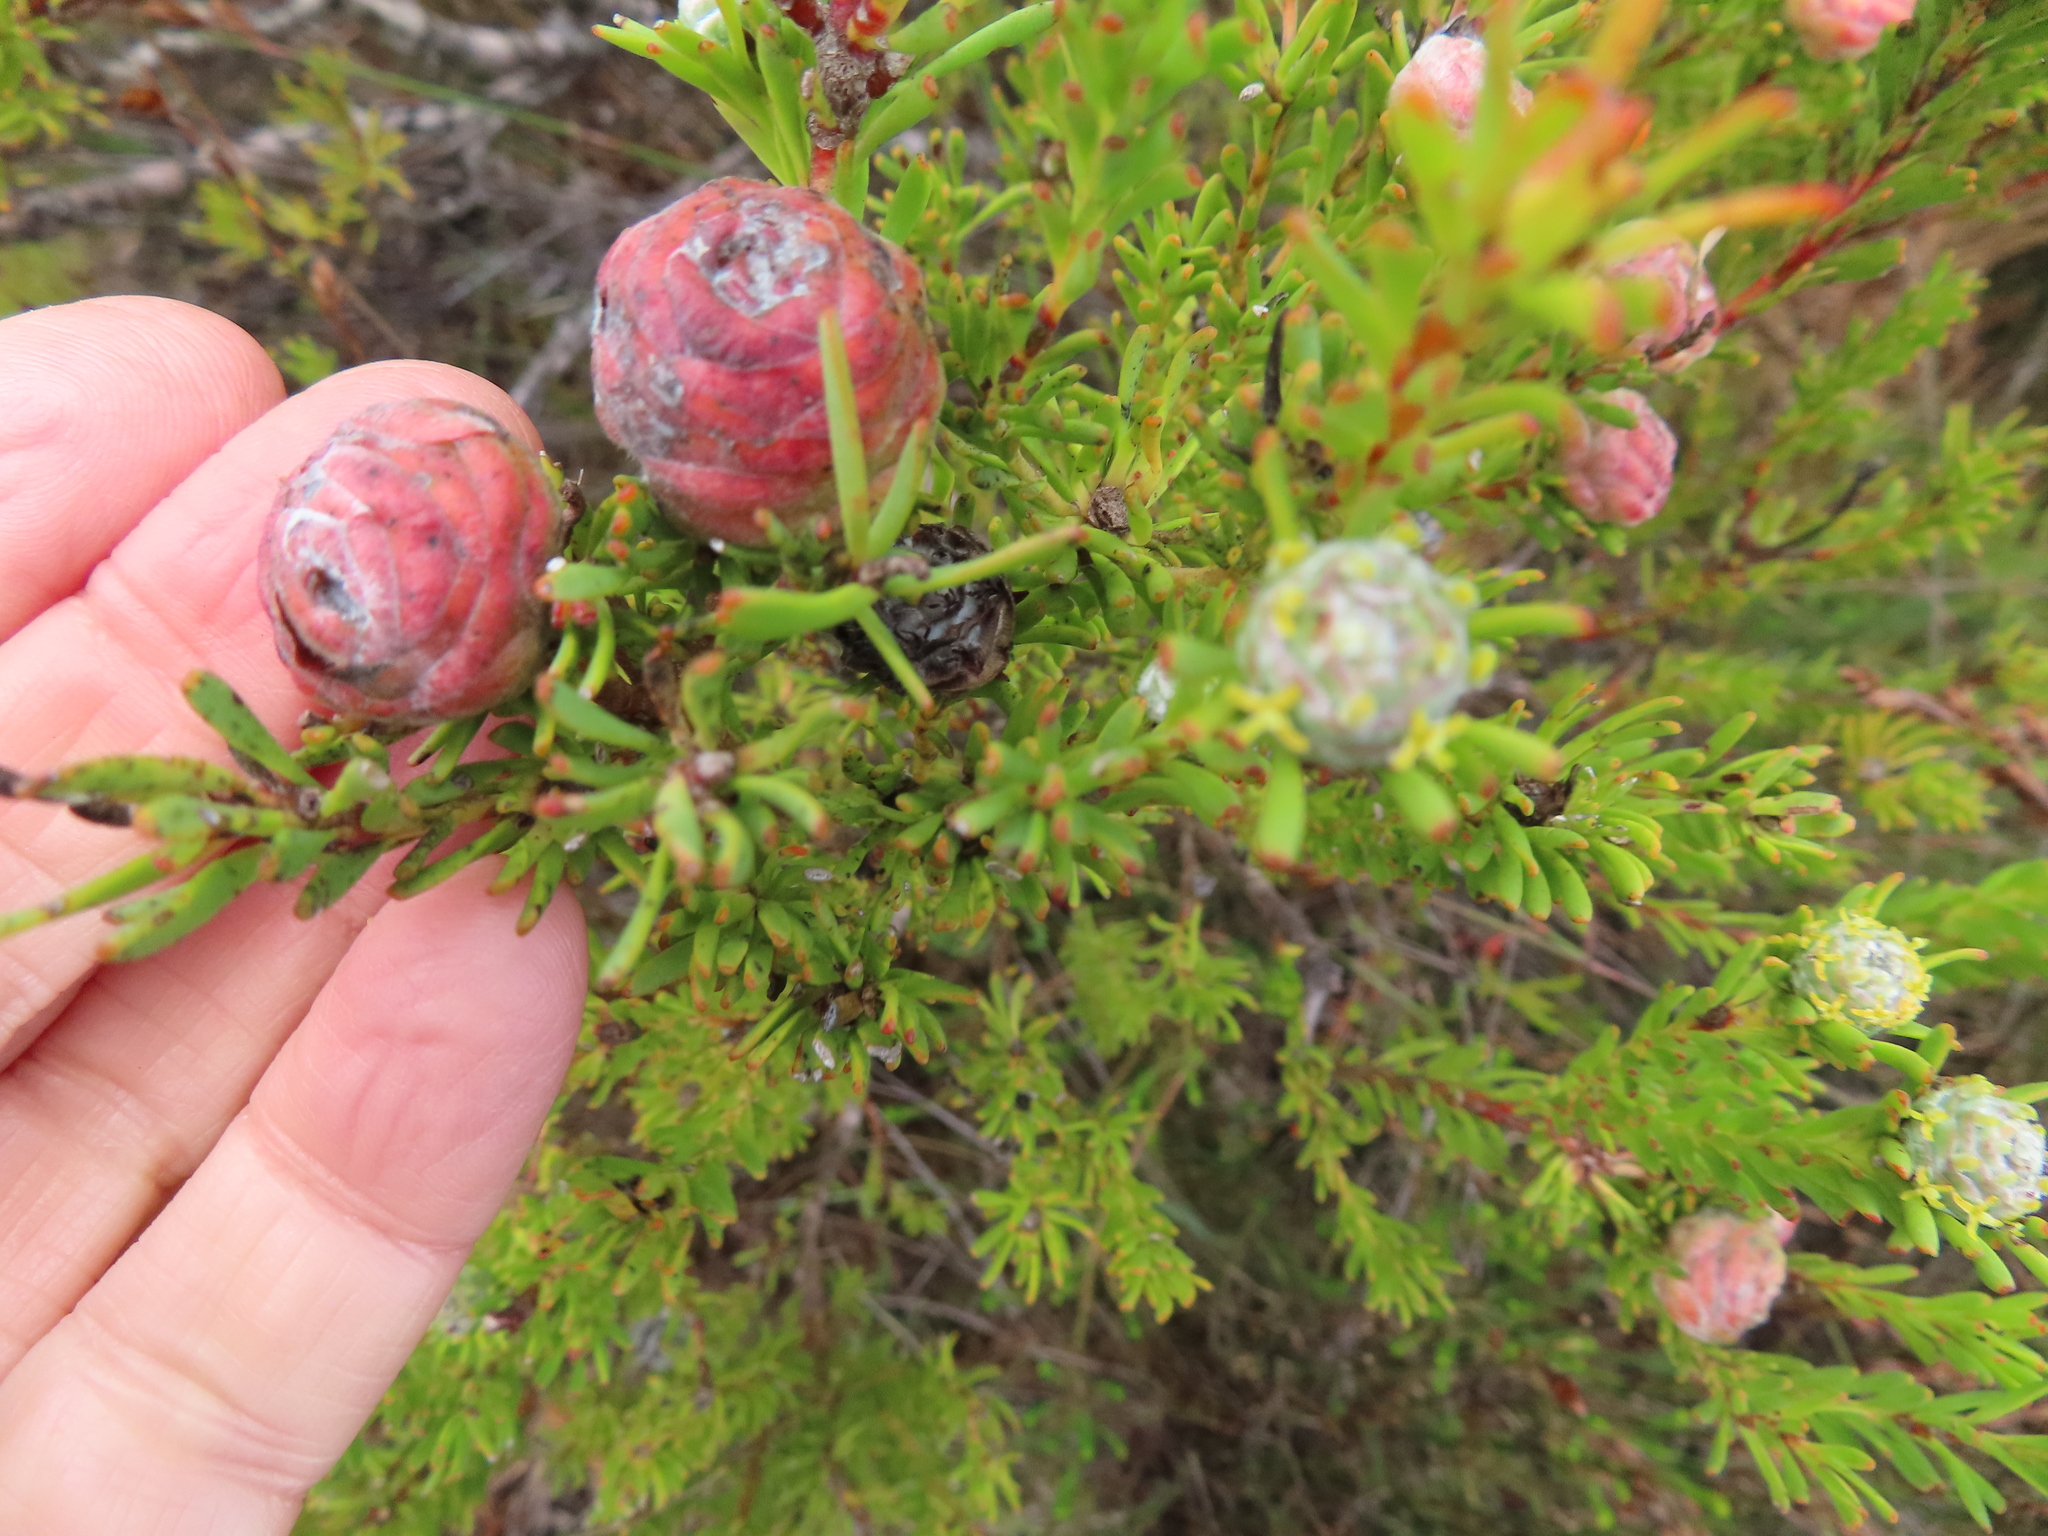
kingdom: Plantae
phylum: Tracheophyta
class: Magnoliopsida
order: Proteales
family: Proteaceae
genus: Leucadendron
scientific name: Leucadendron linifolium
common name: Line-leaf conebush
